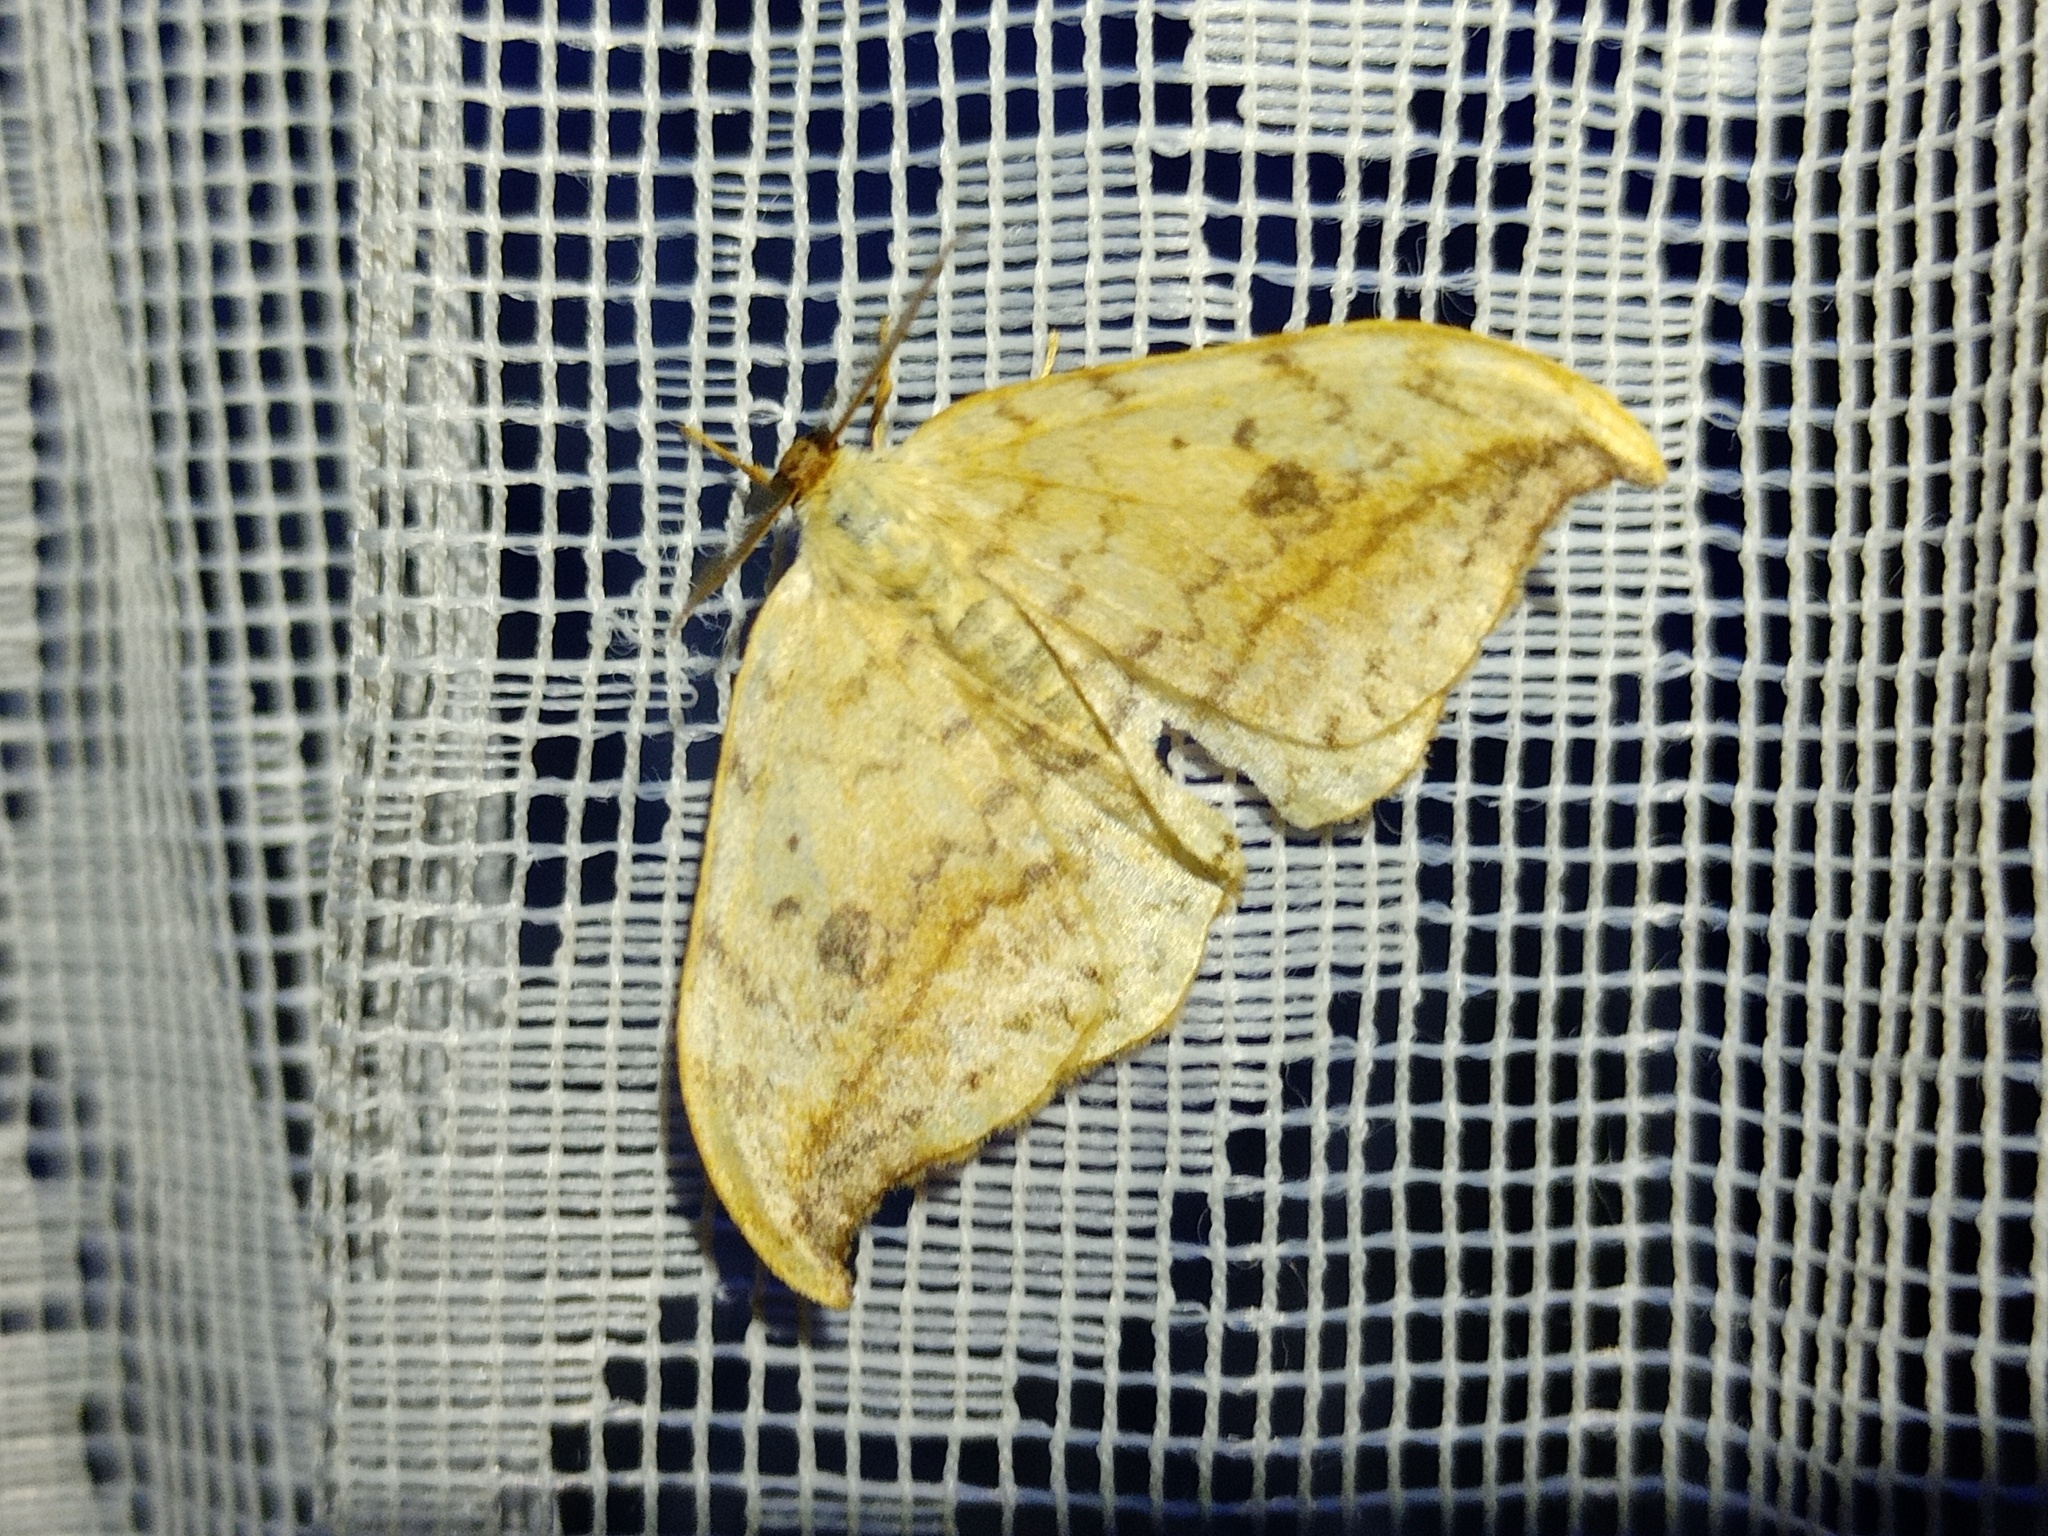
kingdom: Animalia
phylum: Arthropoda
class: Insecta
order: Lepidoptera
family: Drepanidae
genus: Drepana
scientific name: Drepana falcataria
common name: Pebble hook-tip
